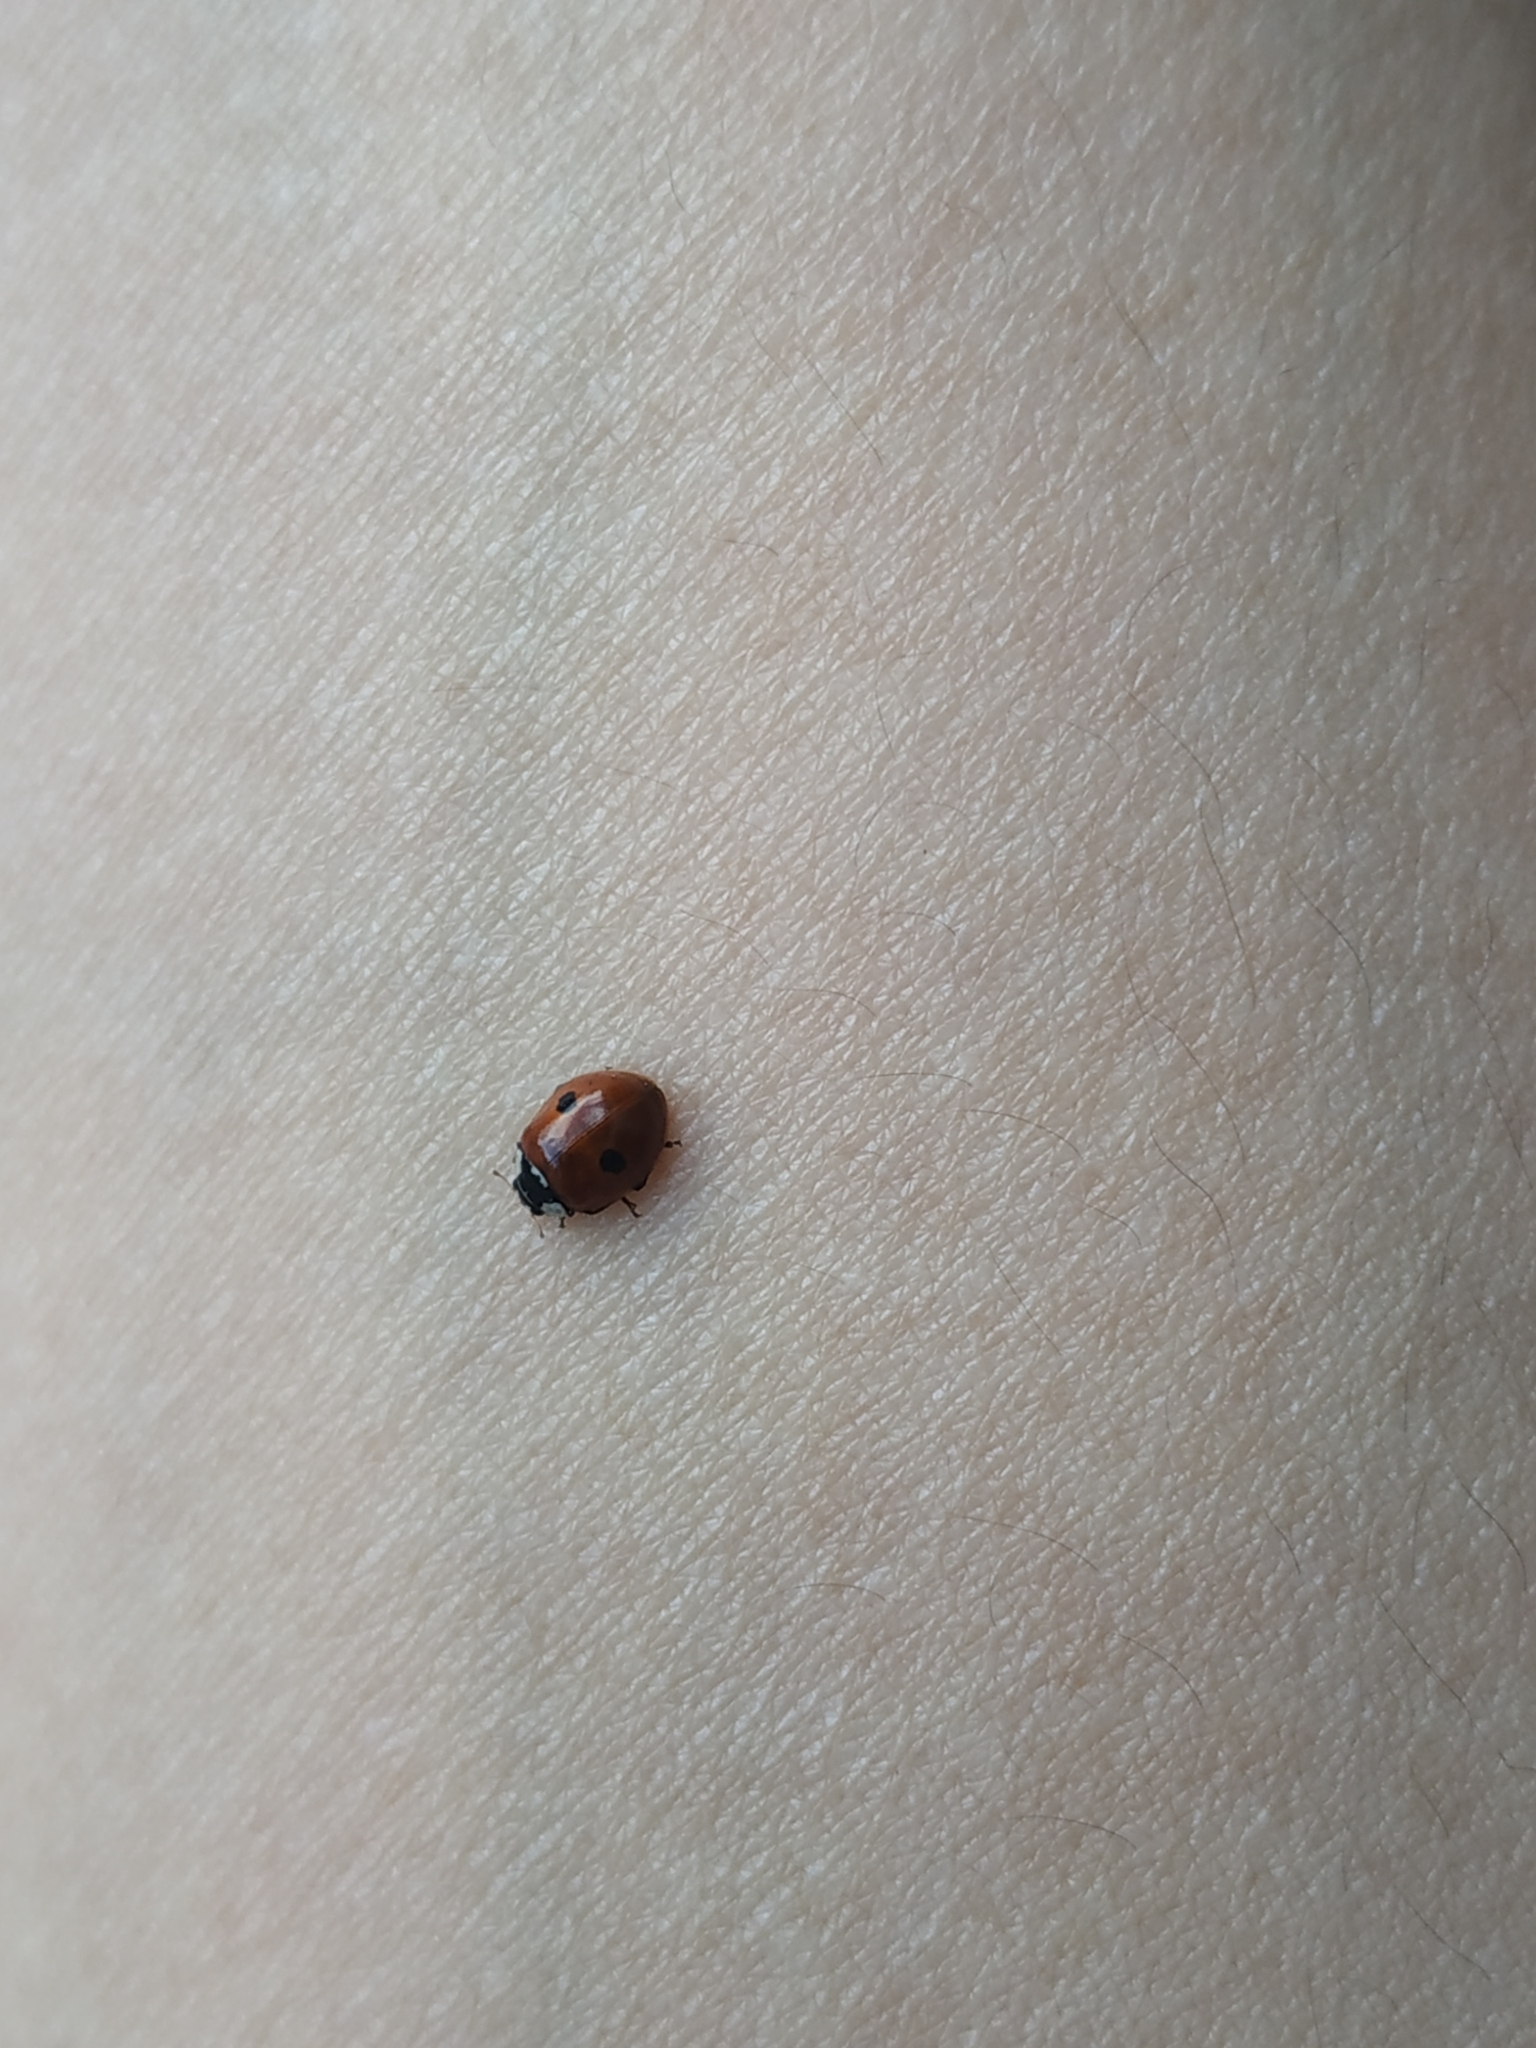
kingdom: Animalia
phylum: Arthropoda
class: Insecta
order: Coleoptera
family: Coccinellidae
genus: Adalia
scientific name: Adalia bipunctata
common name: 2-spot ladybird
